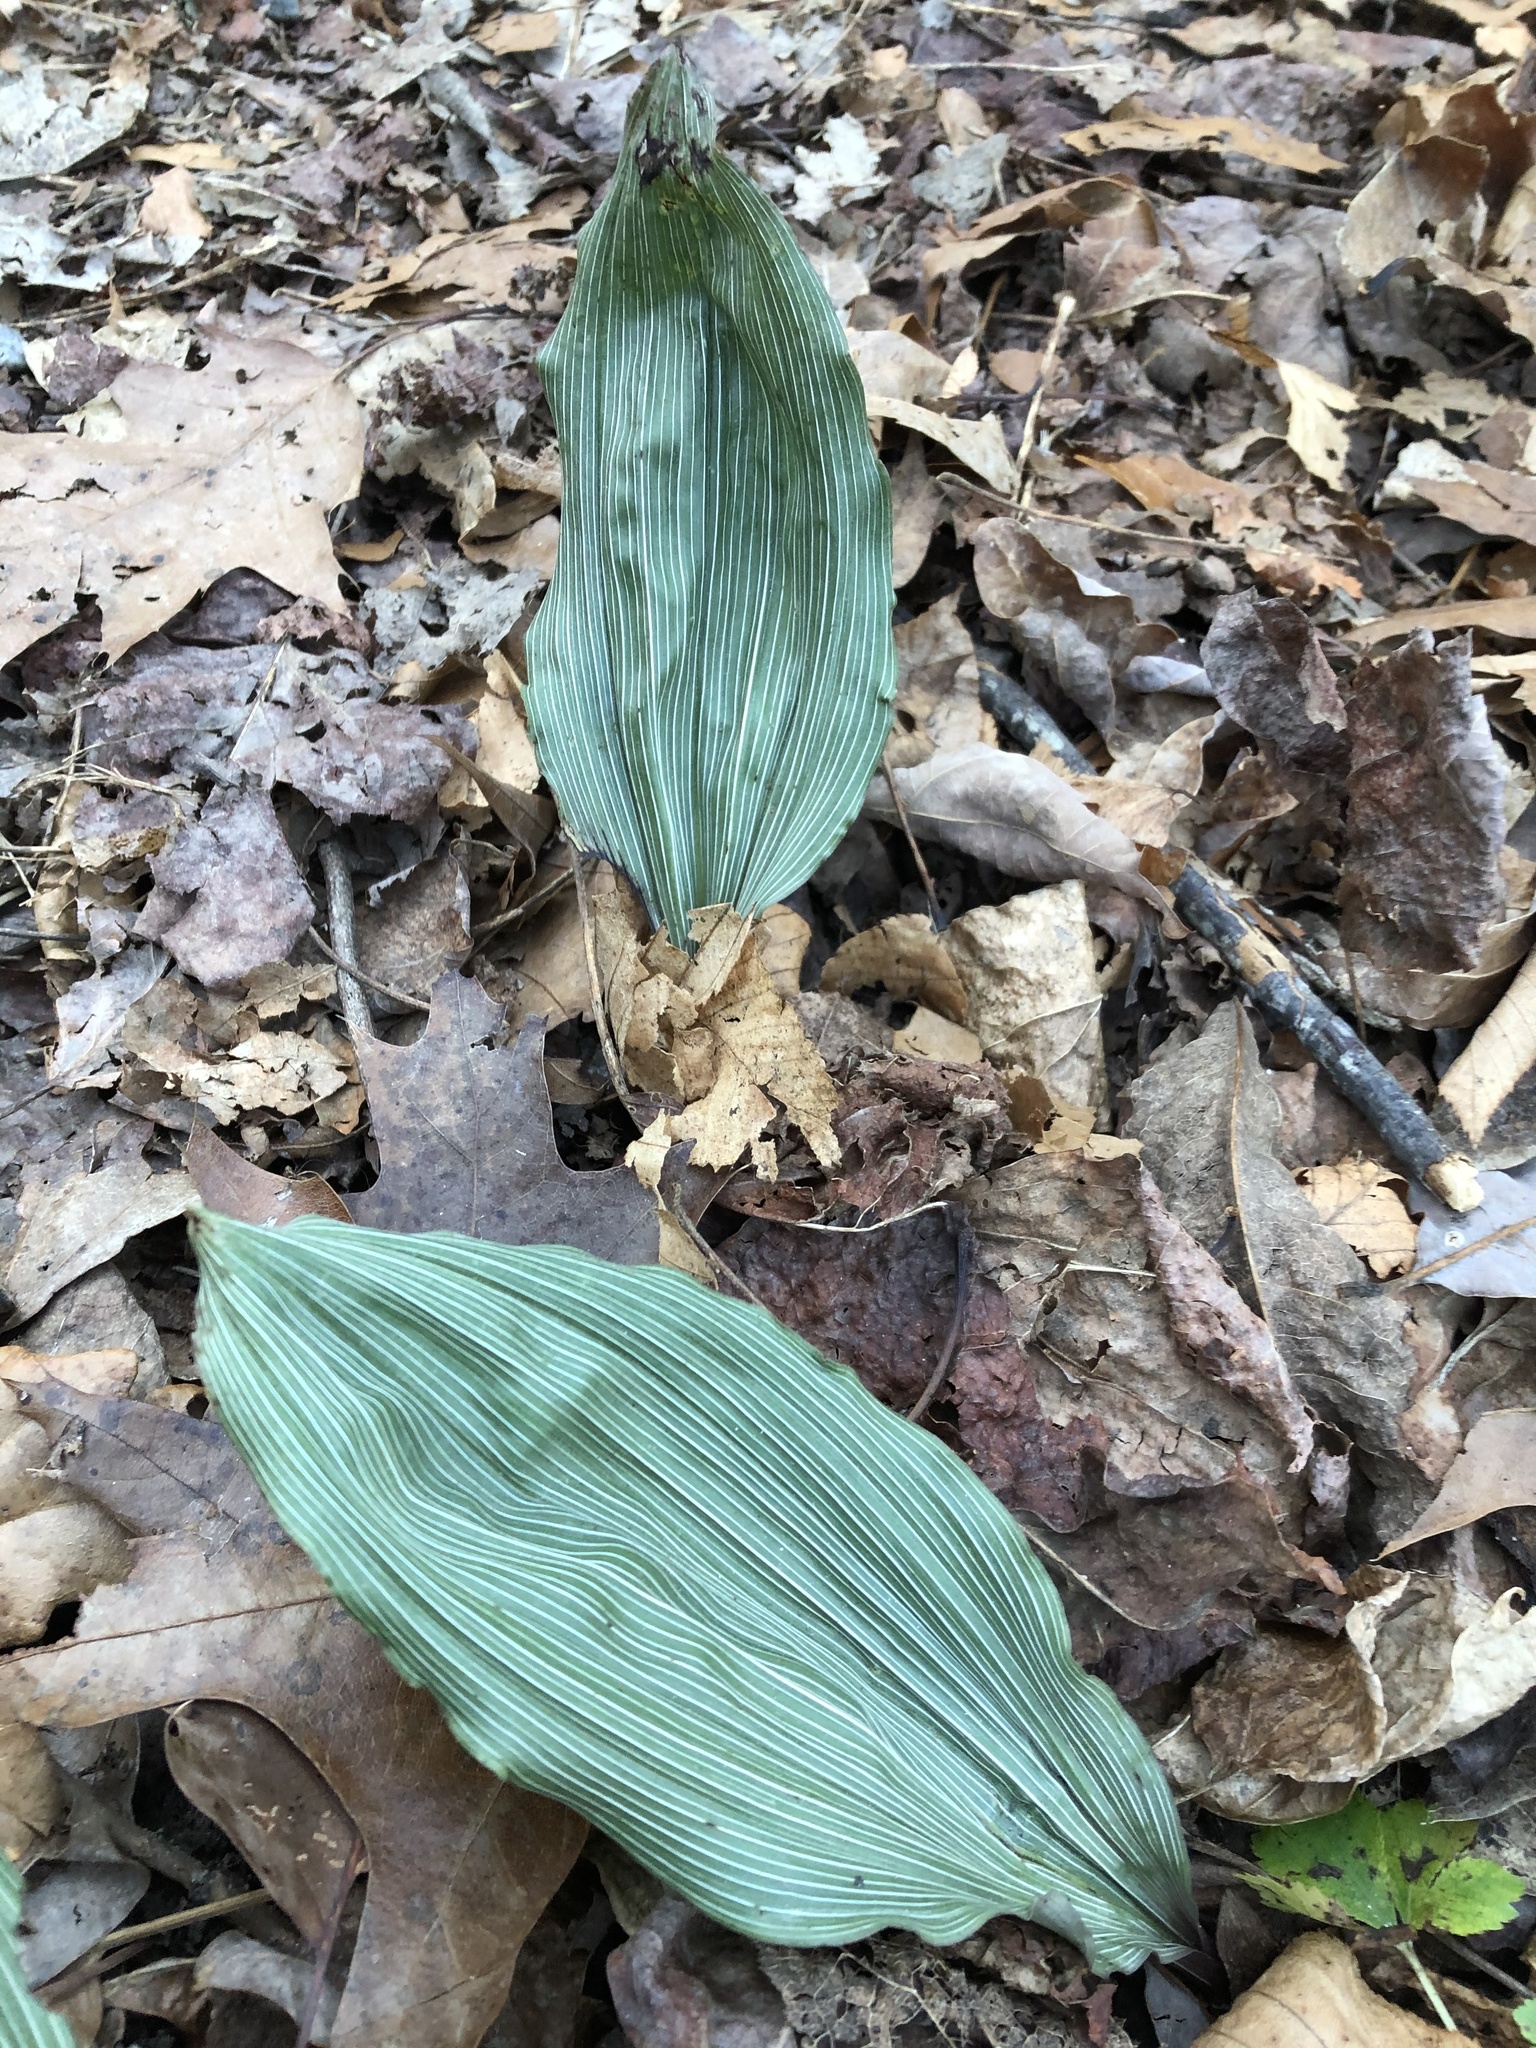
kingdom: Plantae
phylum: Tracheophyta
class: Liliopsida
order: Asparagales
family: Orchidaceae
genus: Aplectrum
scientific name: Aplectrum hyemale
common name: Adam-and-eve
